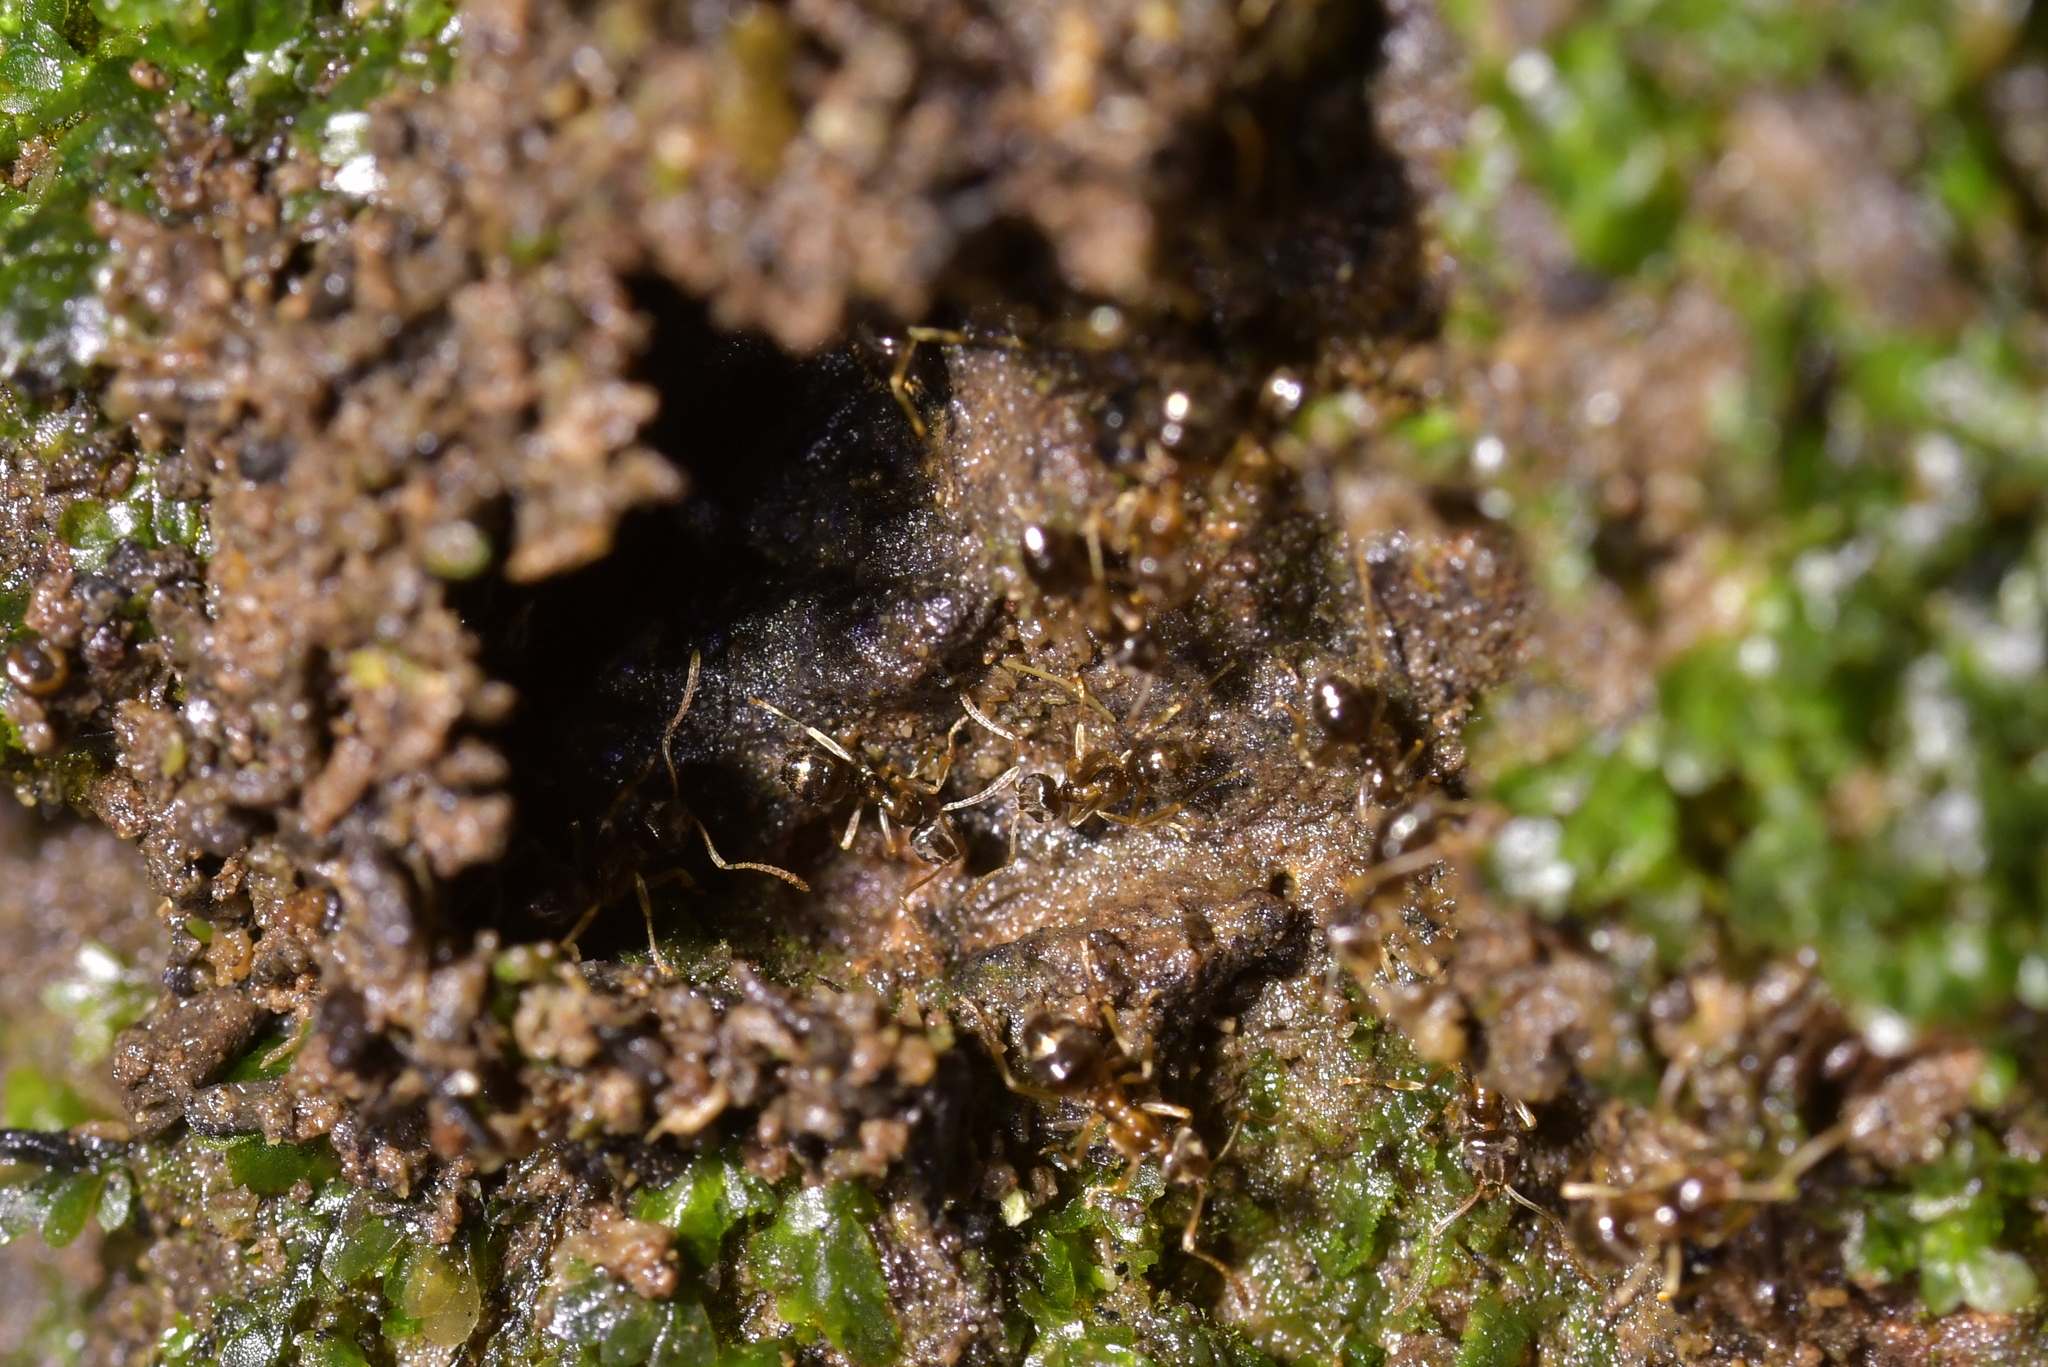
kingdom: Animalia
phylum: Arthropoda
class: Insecta
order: Hymenoptera
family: Formicidae
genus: Prolasius
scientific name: Prolasius advenus
